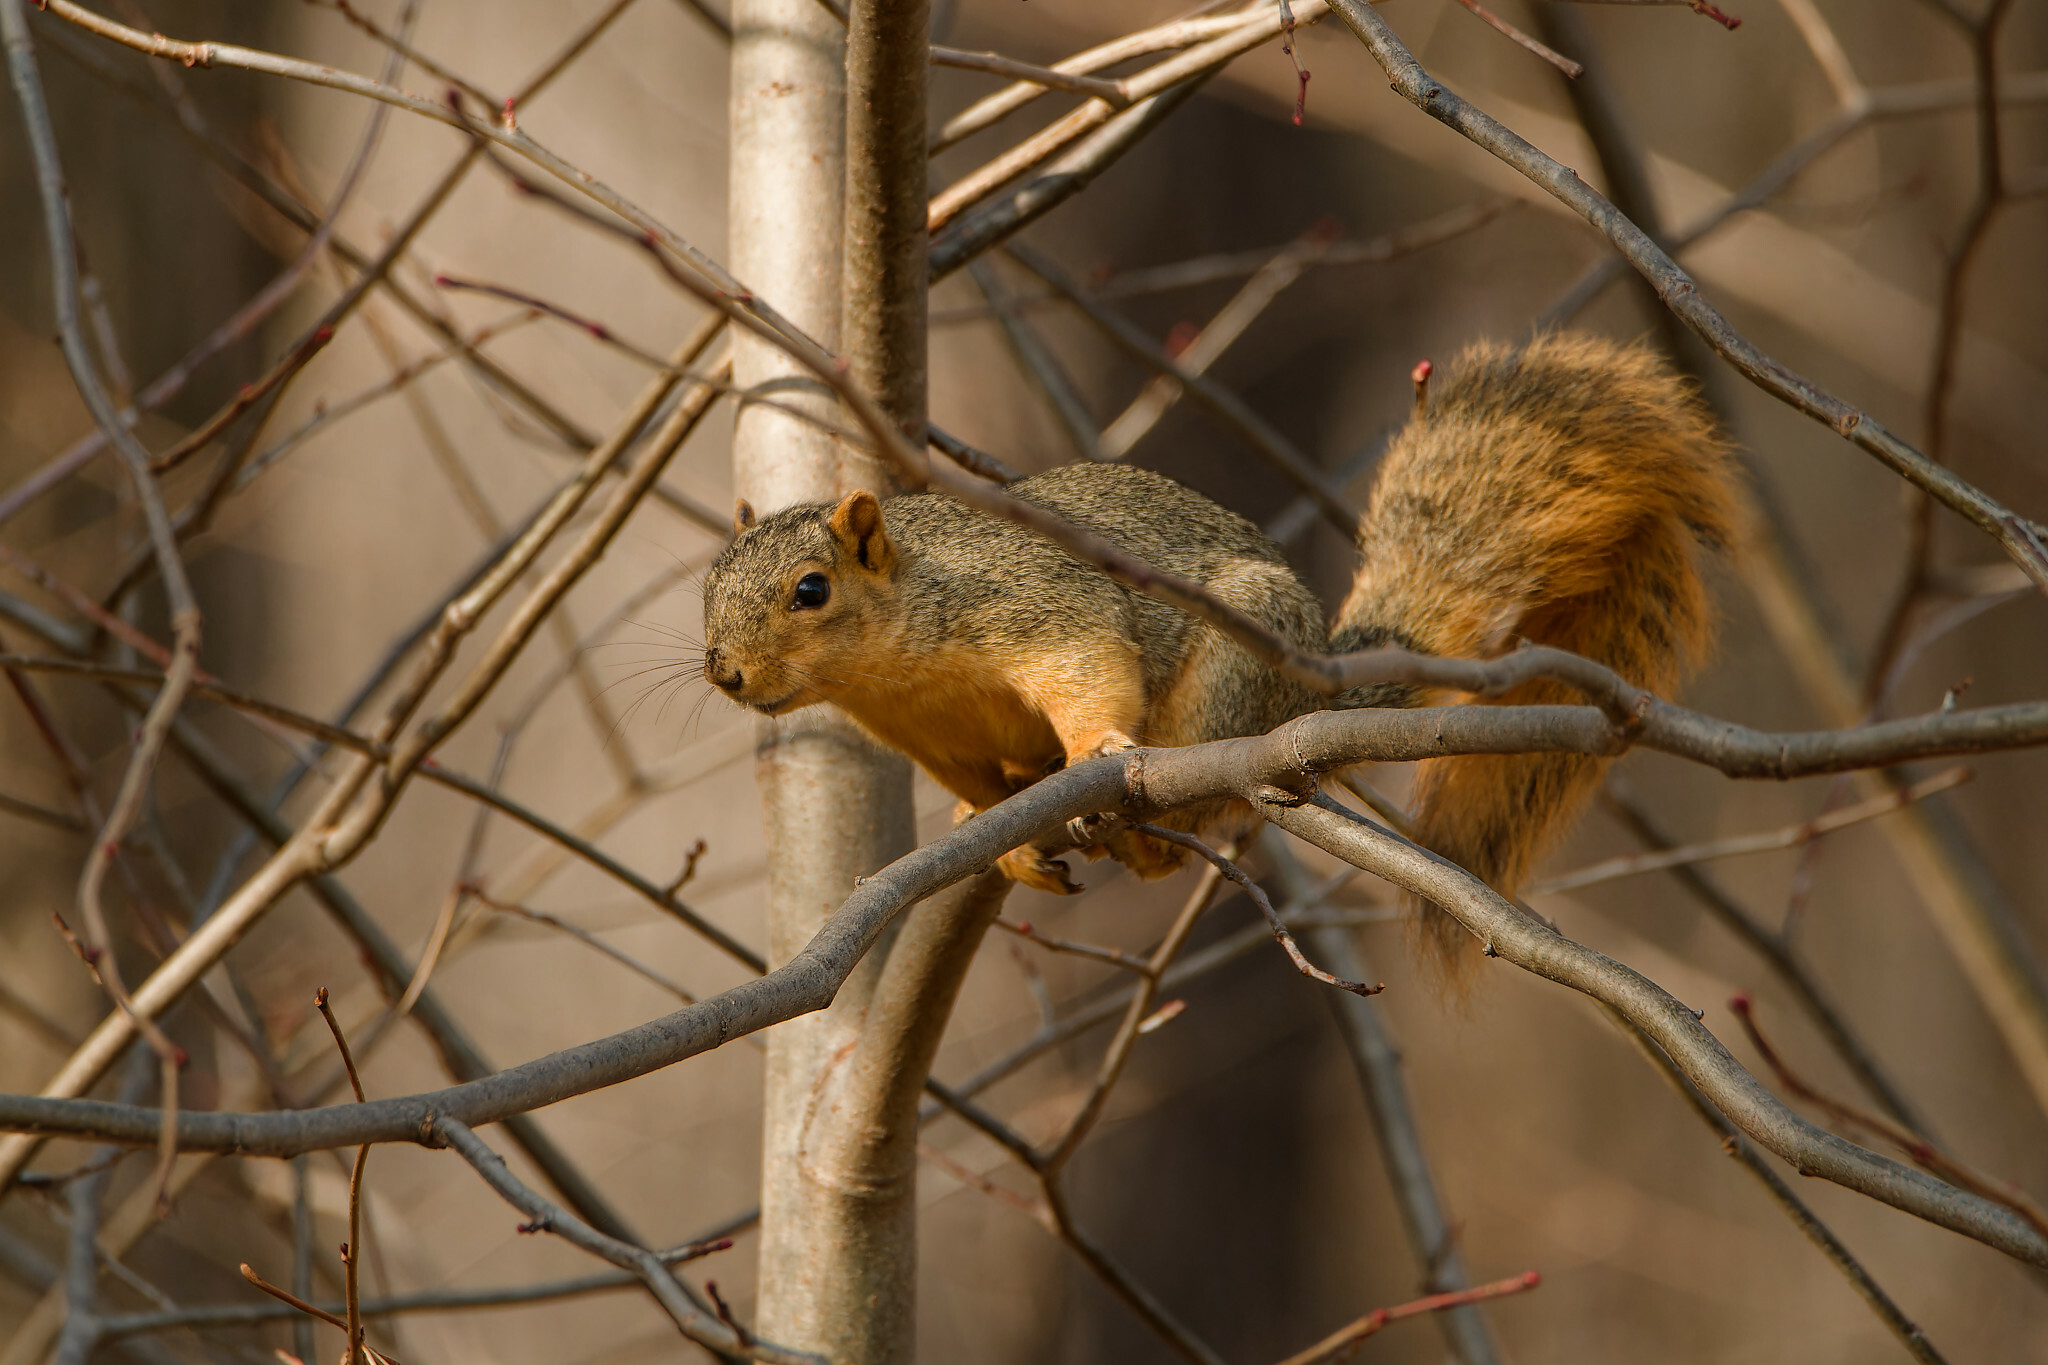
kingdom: Animalia
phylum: Chordata
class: Mammalia
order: Rodentia
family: Sciuridae
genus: Sciurus
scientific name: Sciurus niger
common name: Fox squirrel
